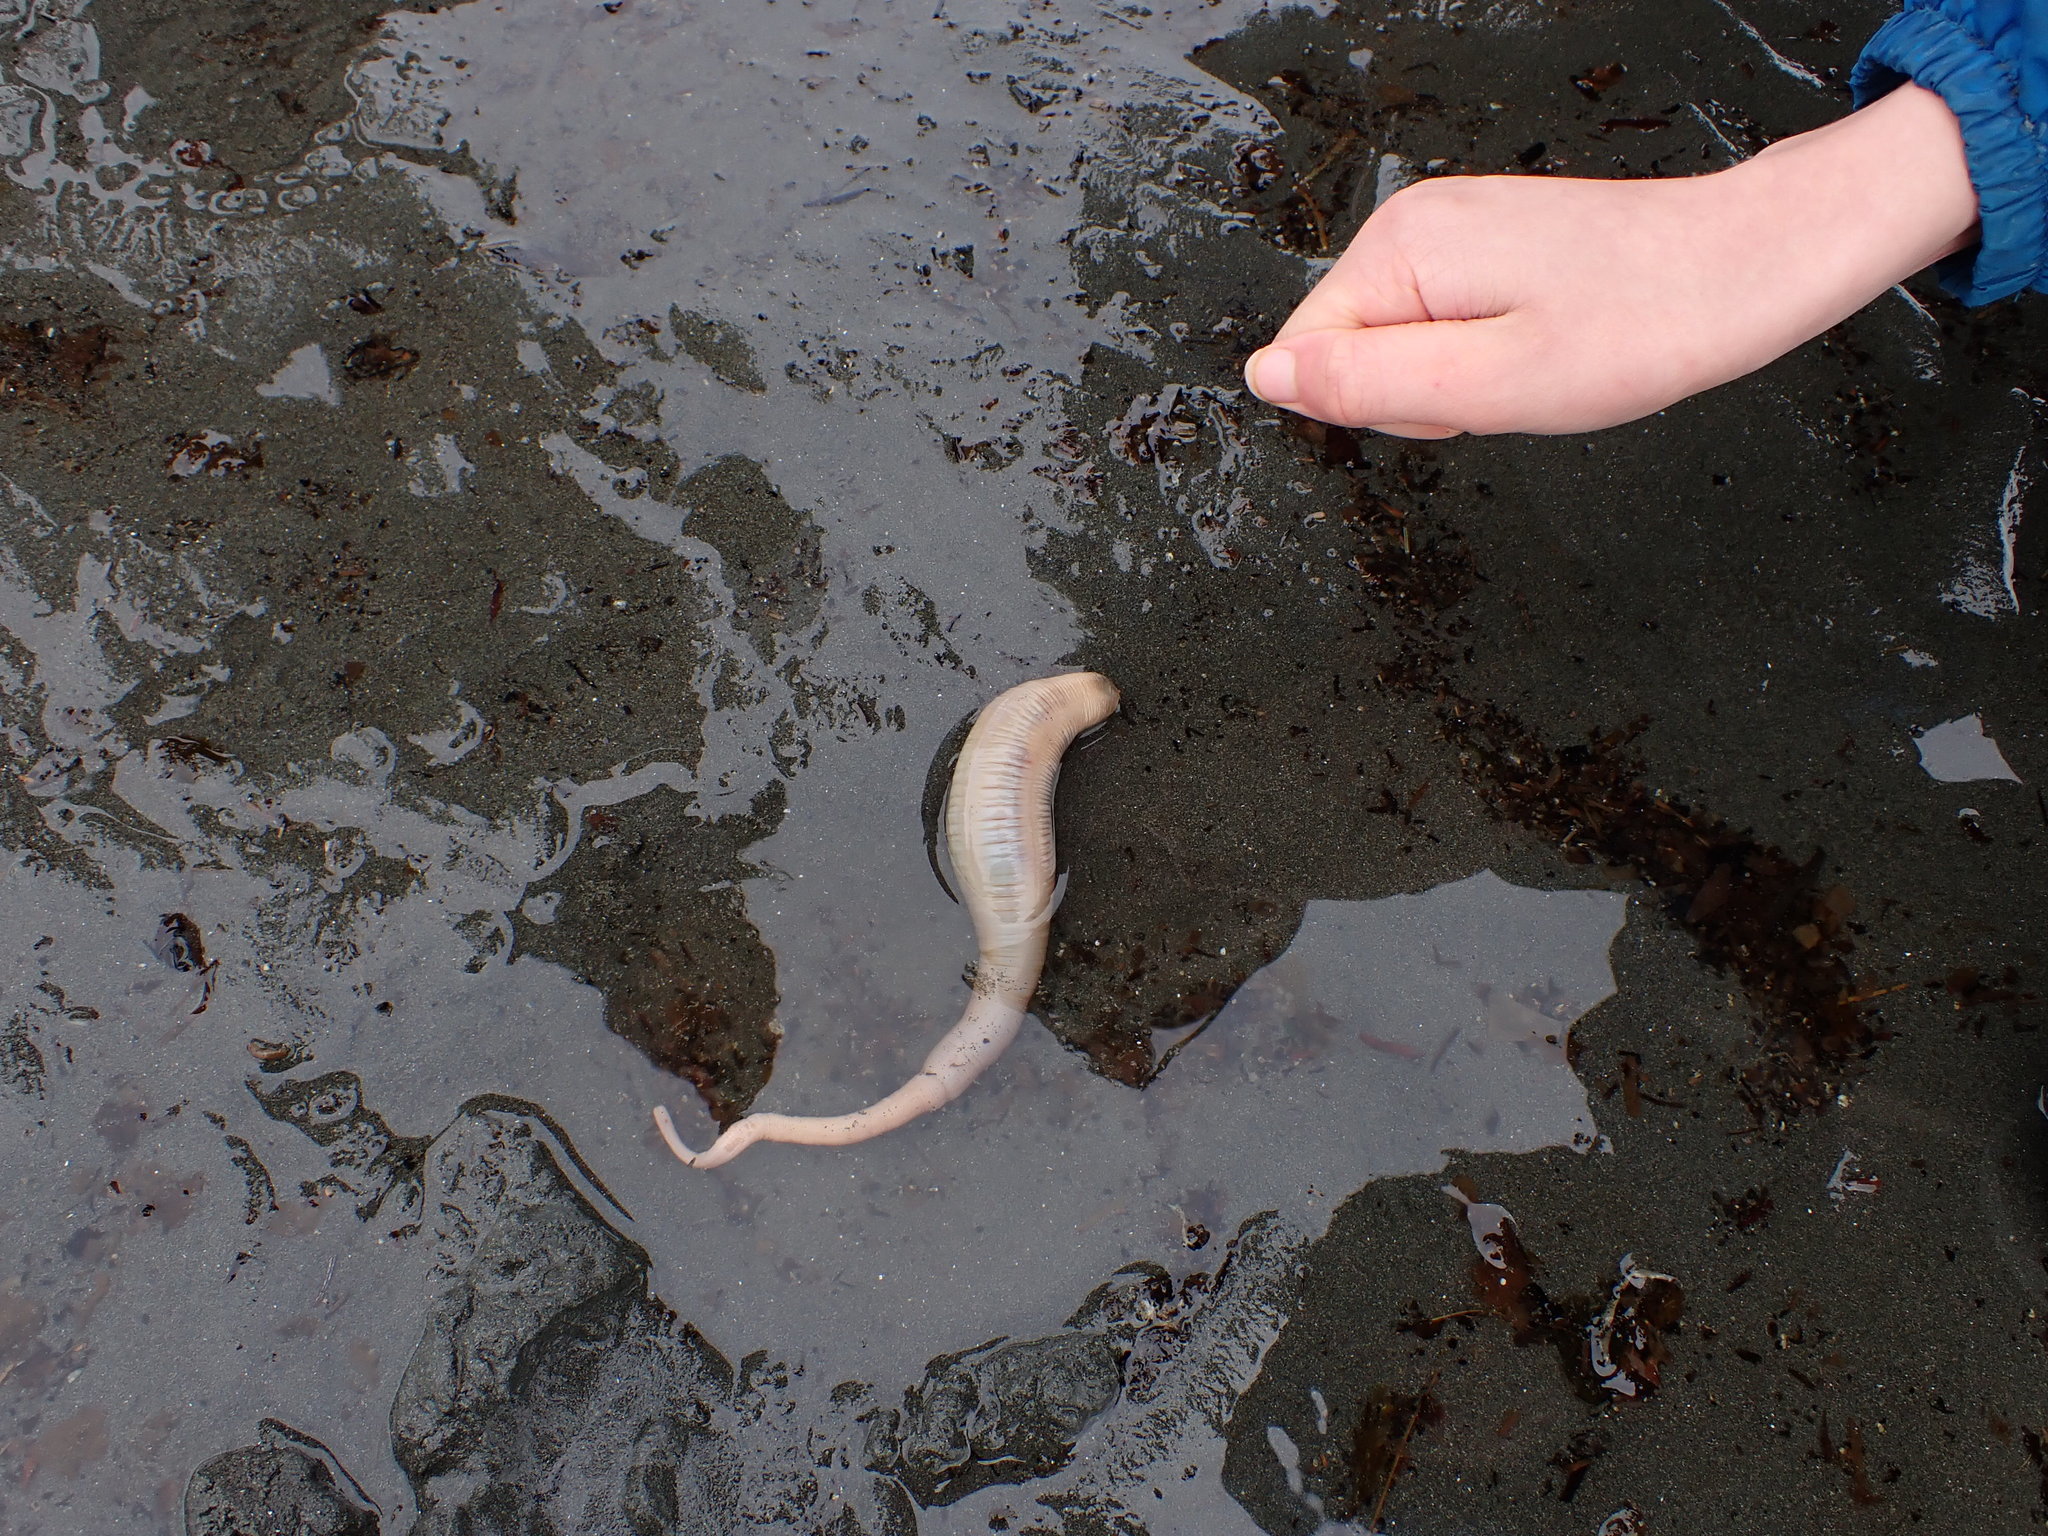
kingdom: Animalia
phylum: Echinodermata
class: Holothuroidea
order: Molpadida
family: Caudinidae
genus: Paracaudina
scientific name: Paracaudina chilensis
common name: Rat-tailed fusiform sea cucumber
